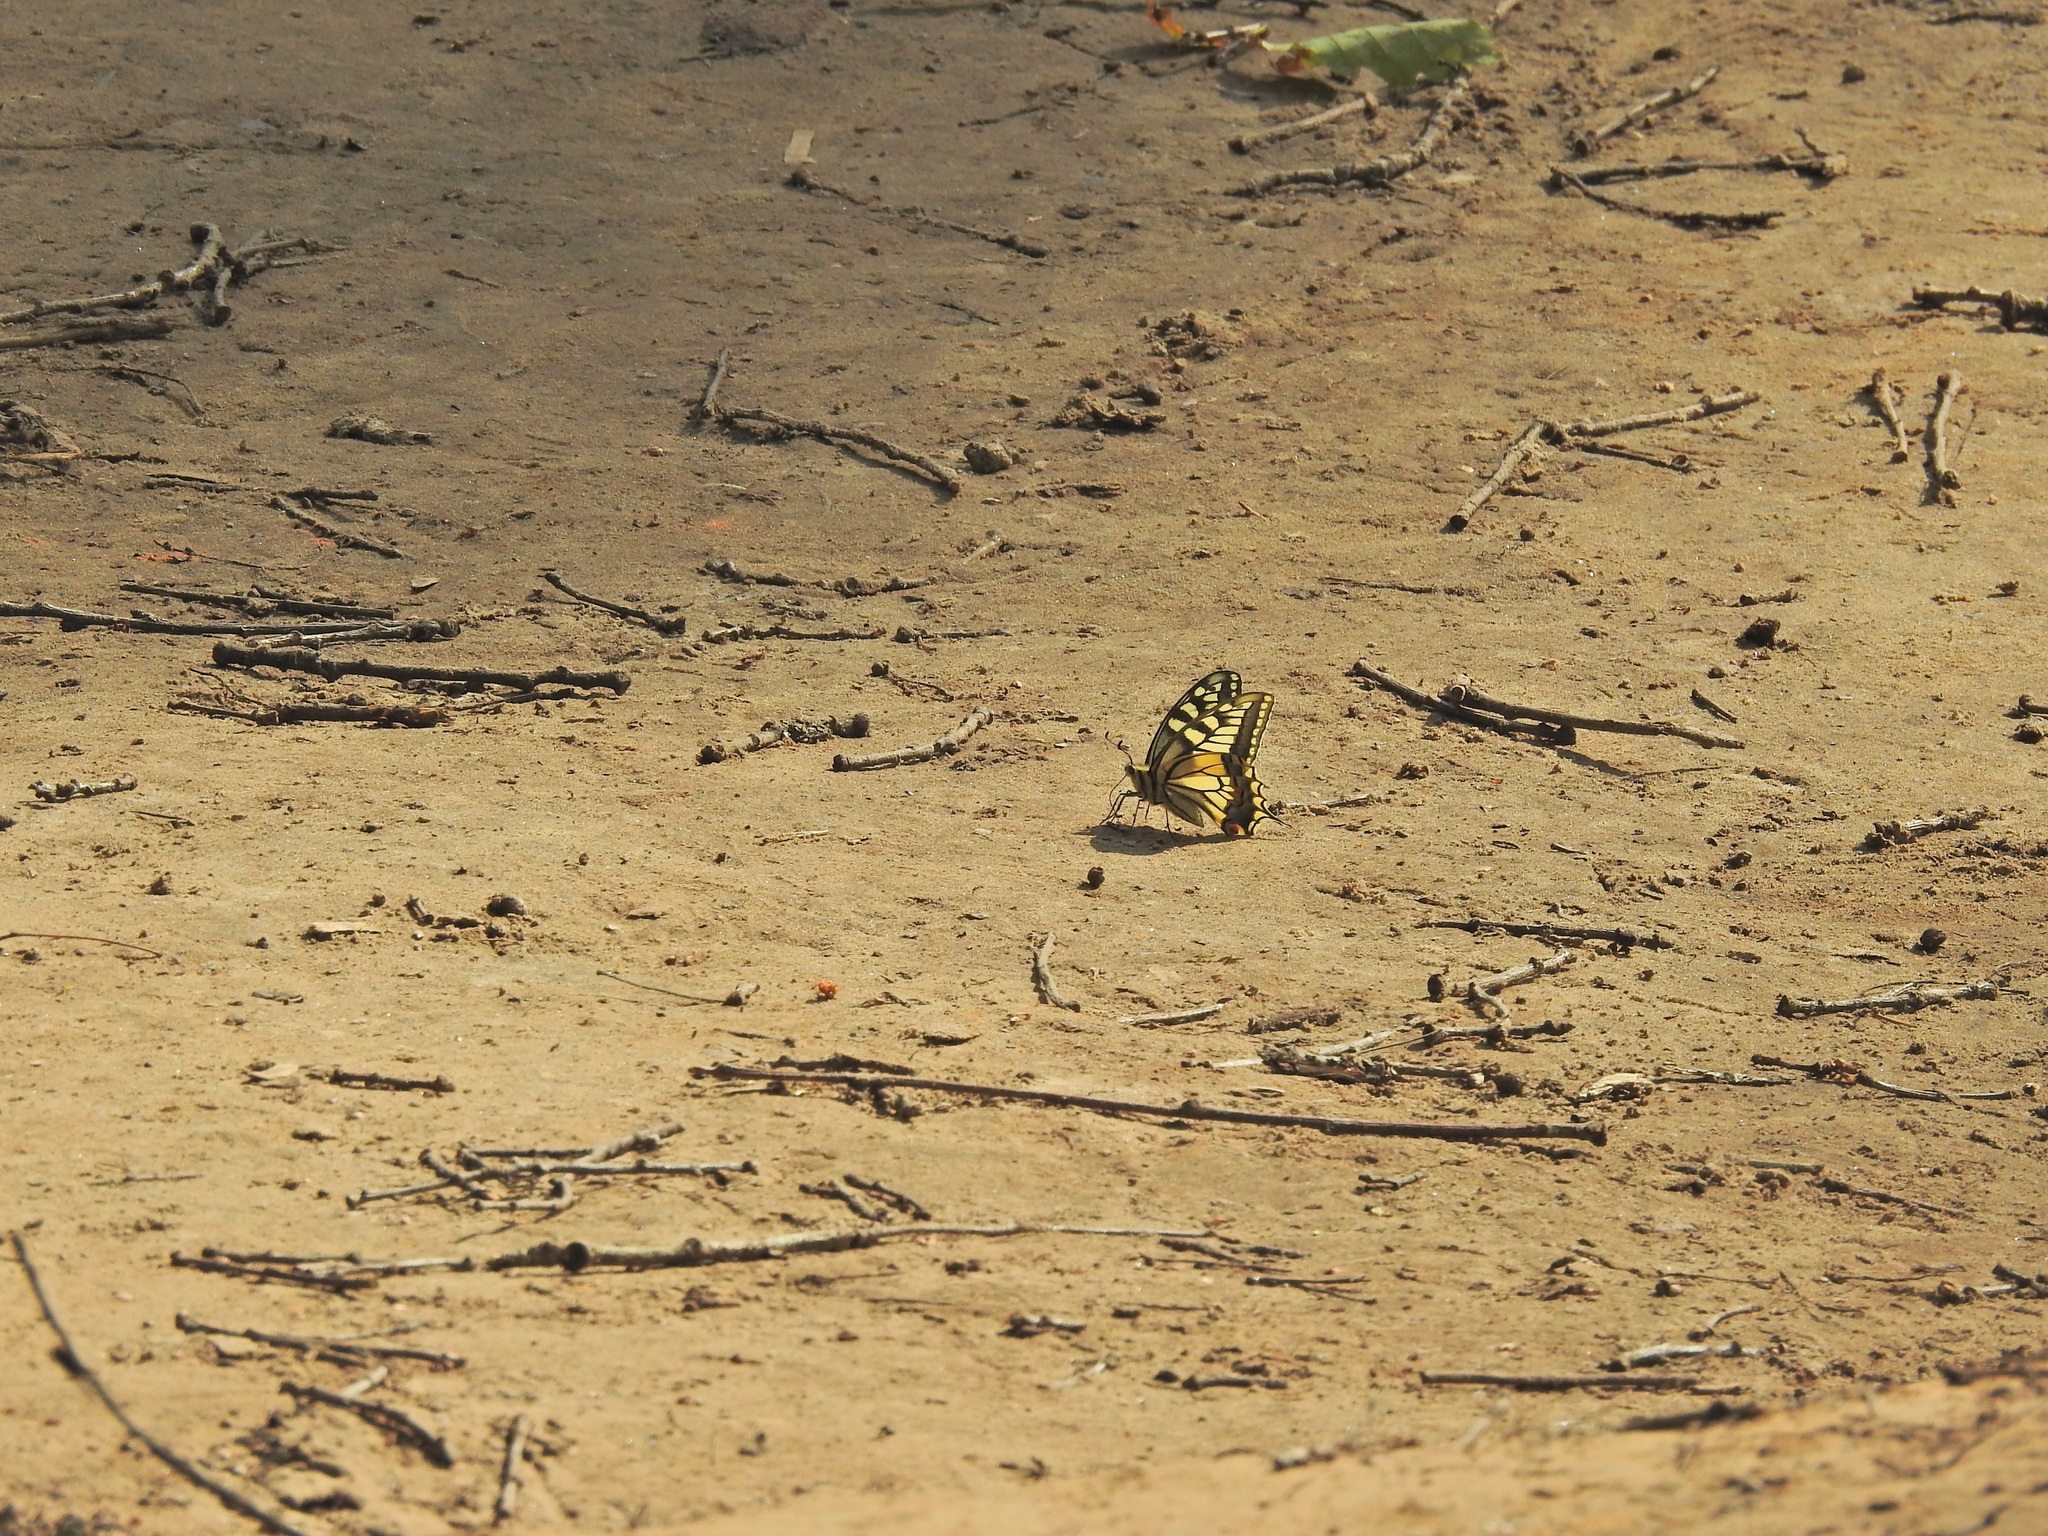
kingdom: Animalia
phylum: Arthropoda
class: Insecta
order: Lepidoptera
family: Papilionidae
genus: Papilio
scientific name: Papilio machaon
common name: Swallowtail
